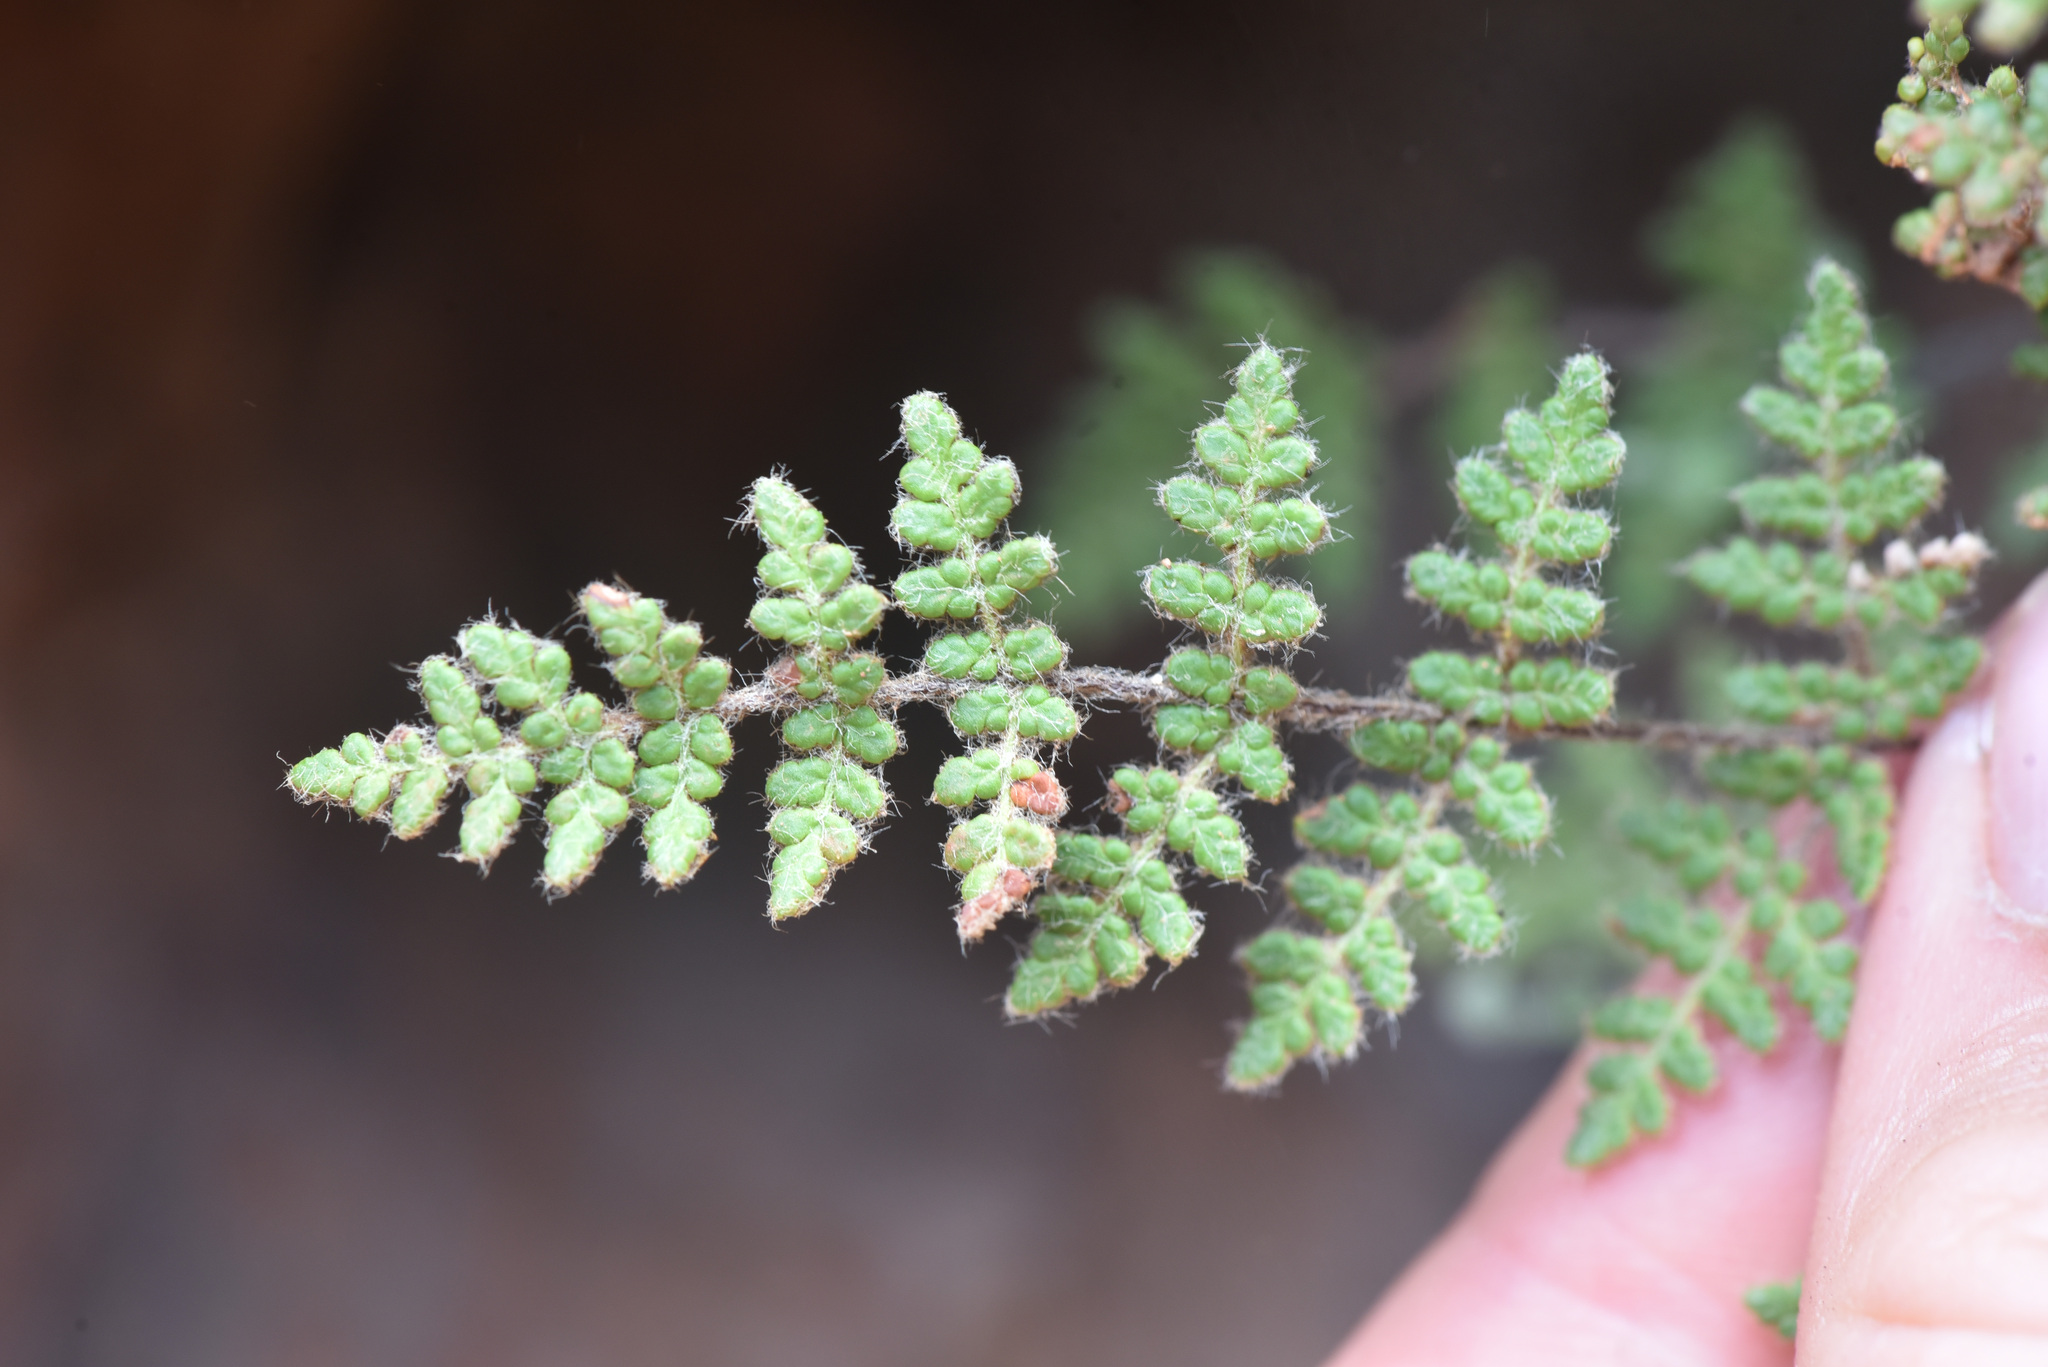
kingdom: Plantae
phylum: Tracheophyta
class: Polypodiopsida
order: Polypodiales
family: Pteridaceae
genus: Myriopteris
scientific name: Myriopteris gracilis
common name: Fee's lip fern
